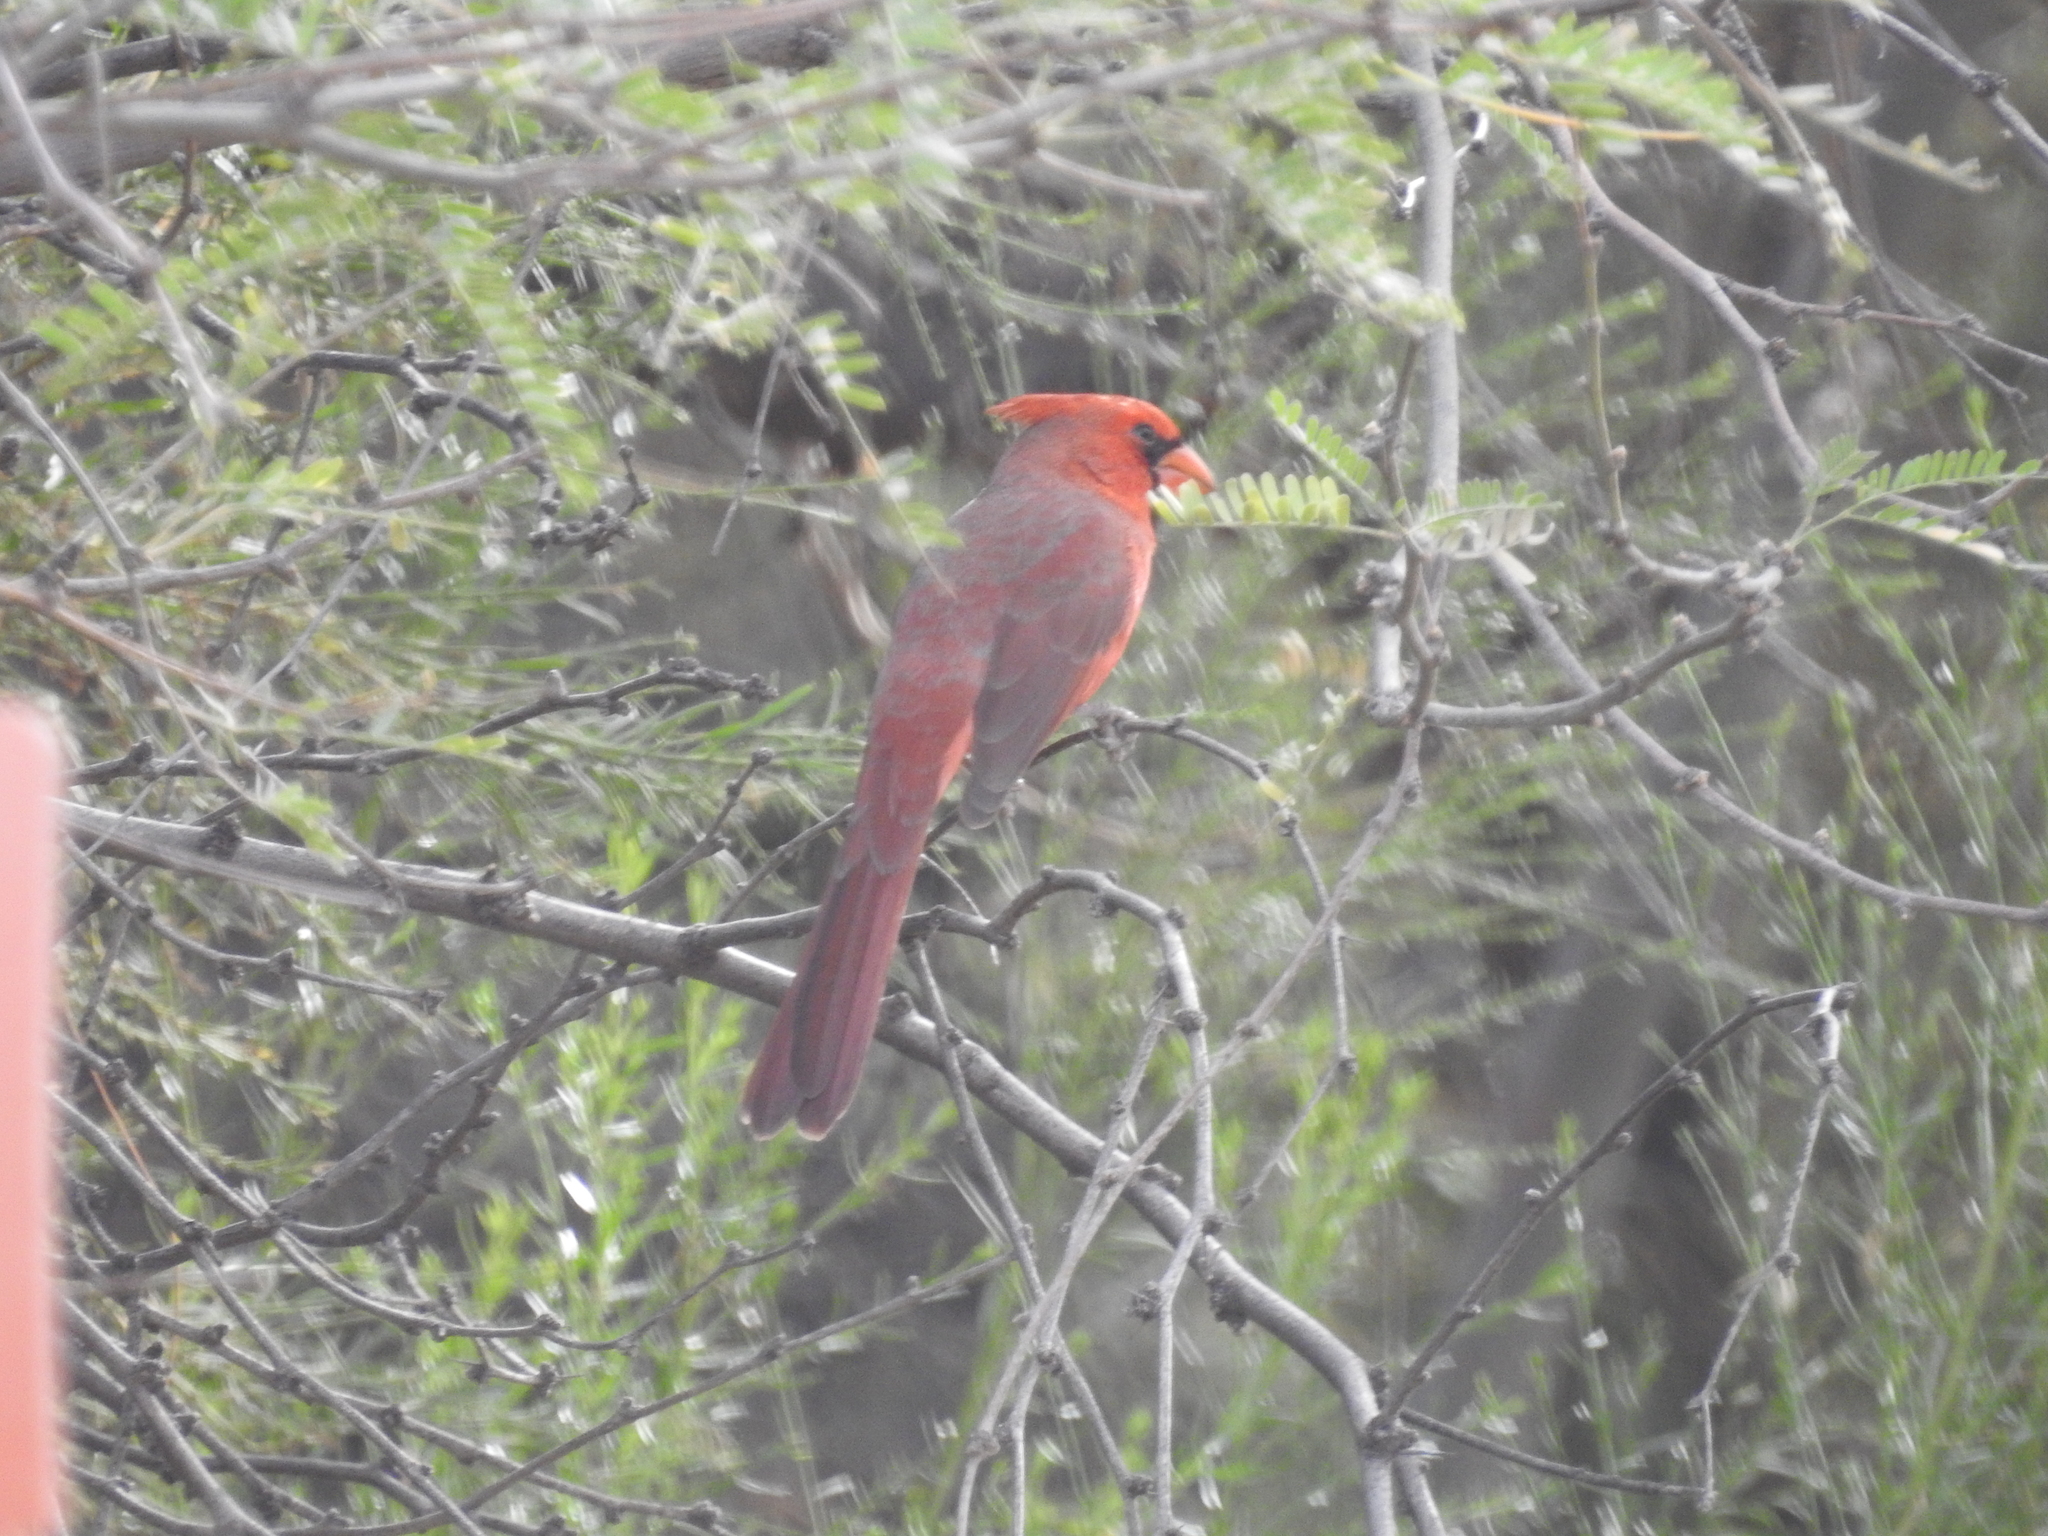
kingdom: Animalia
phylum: Chordata
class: Aves
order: Passeriformes
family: Cardinalidae
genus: Cardinalis
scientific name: Cardinalis cardinalis
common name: Northern cardinal
